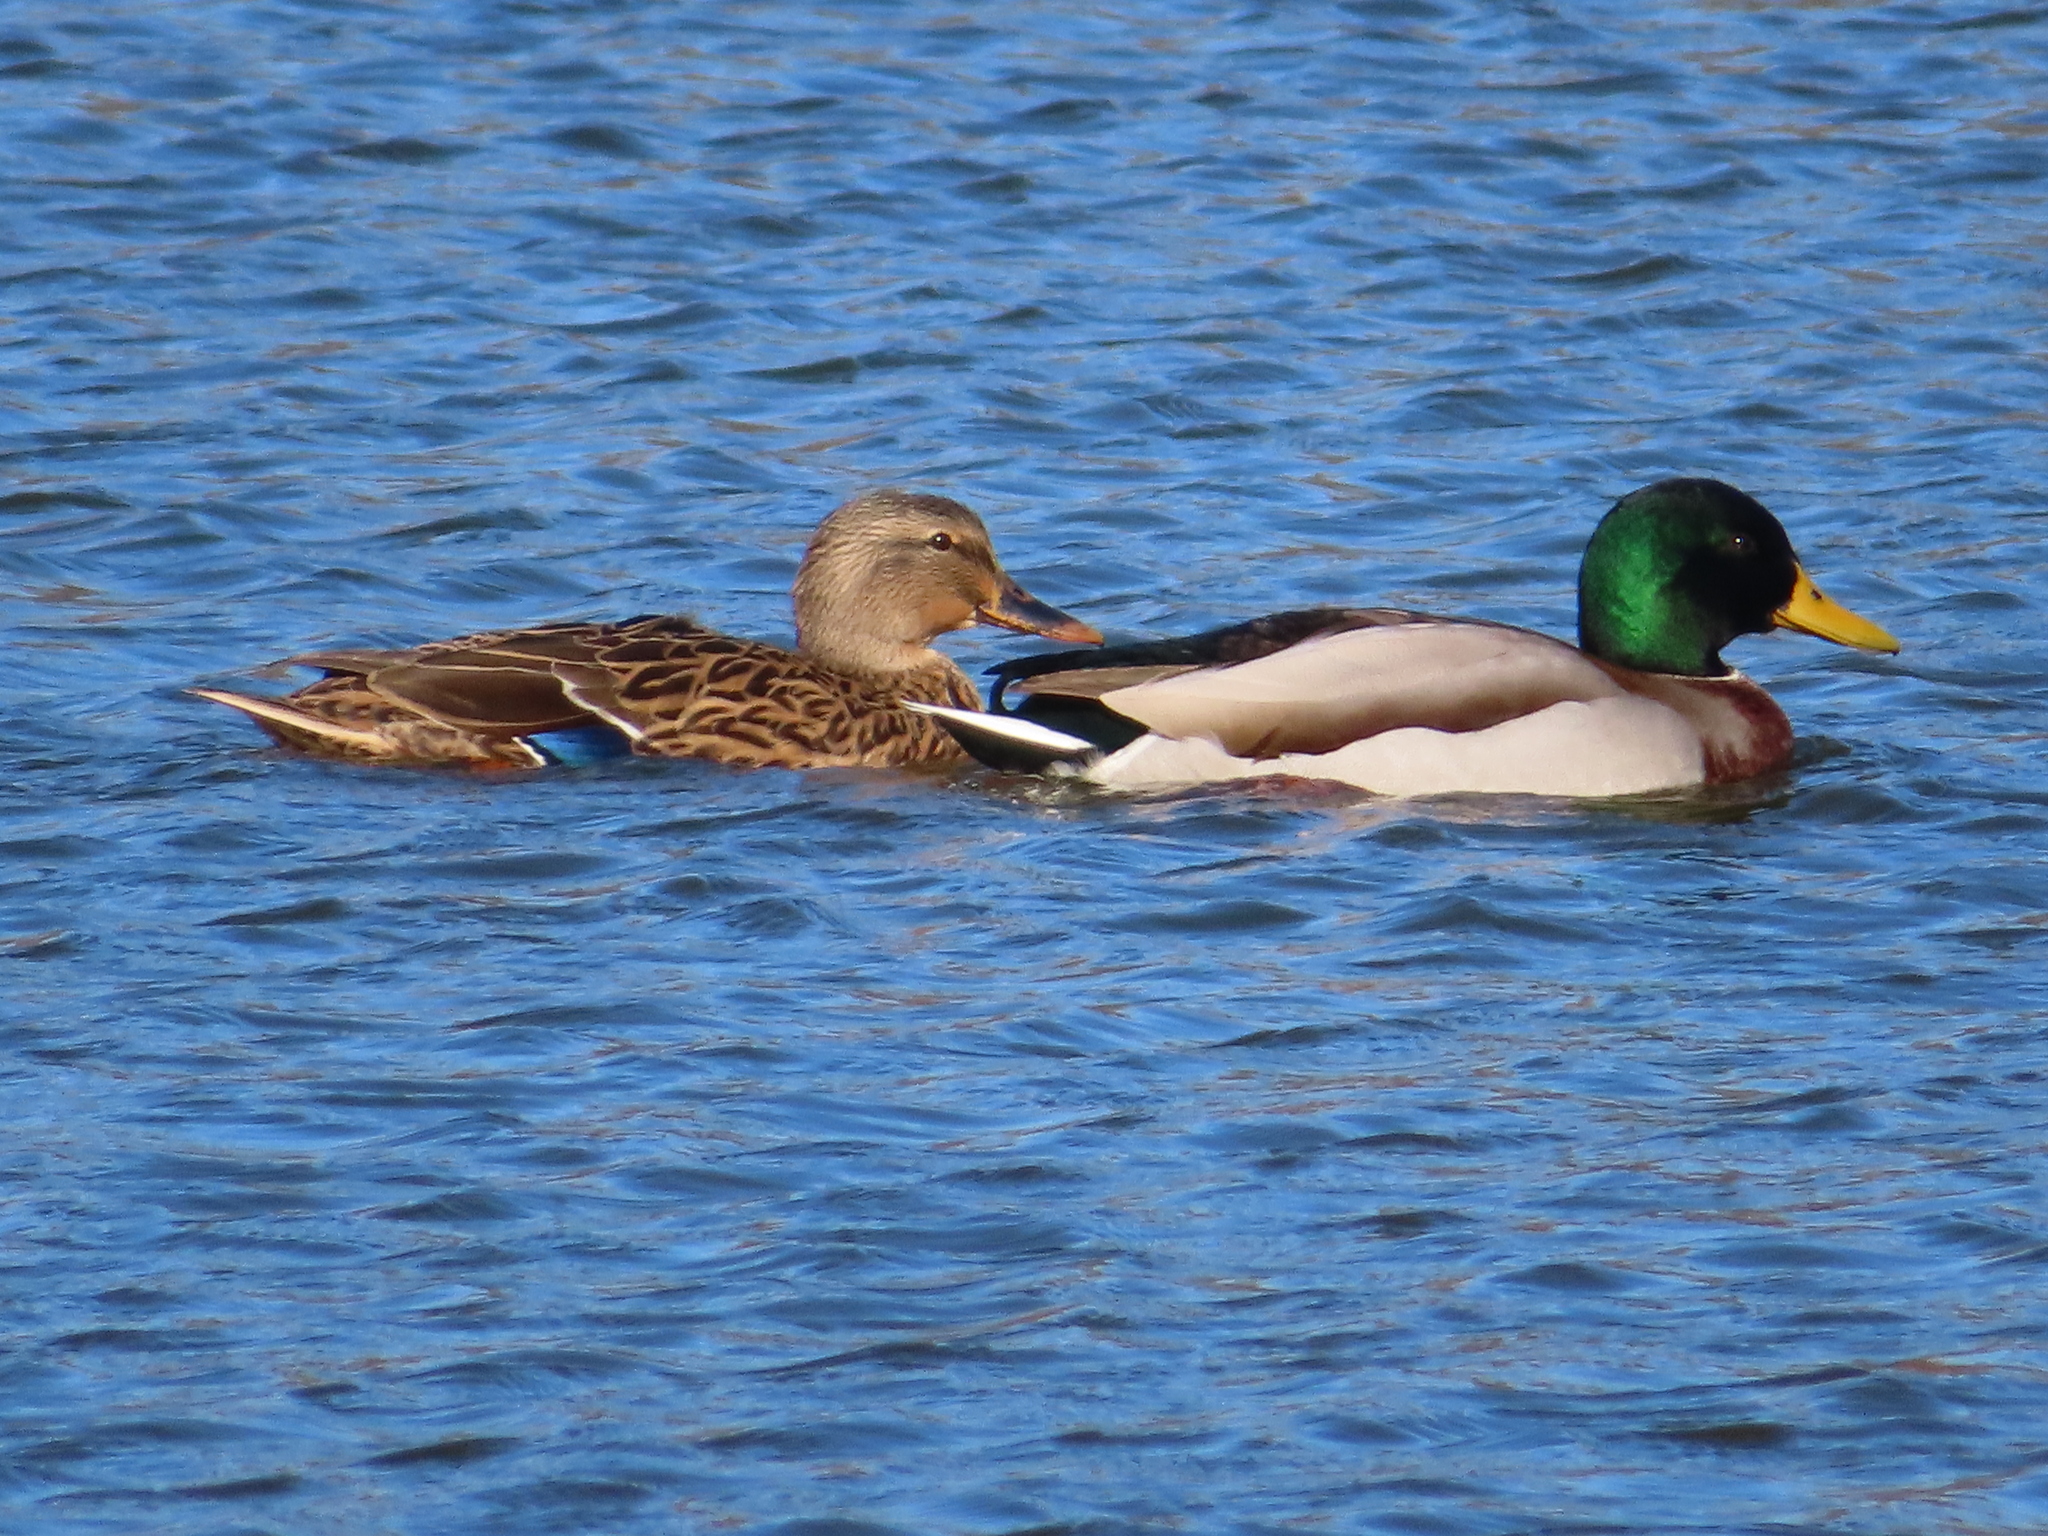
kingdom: Animalia
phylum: Chordata
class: Aves
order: Anseriformes
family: Anatidae
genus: Anas
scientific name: Anas platyrhynchos
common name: Mallard
